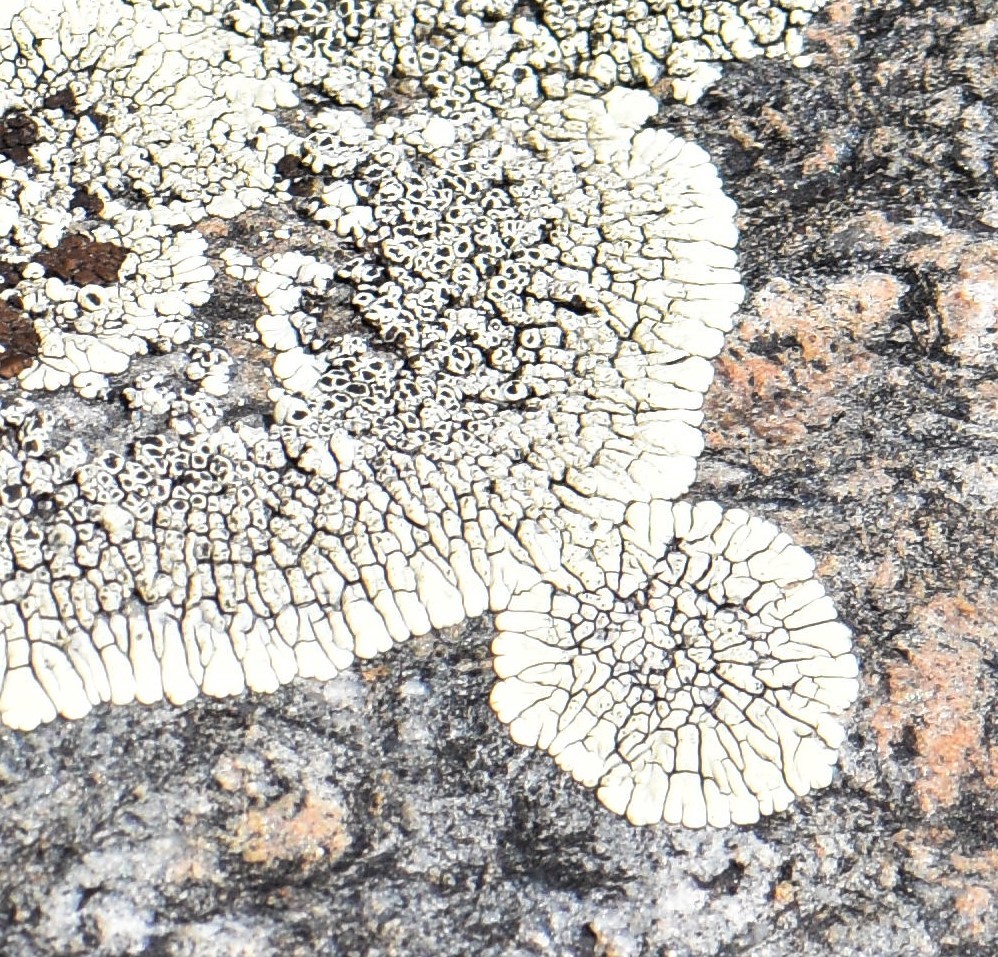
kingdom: Fungi
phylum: Ascomycota
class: Lecanoromycetes
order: Caliciales
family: Caliciaceae
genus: Dimelaena
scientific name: Dimelaena oreina
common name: Golden moonglow lichen
